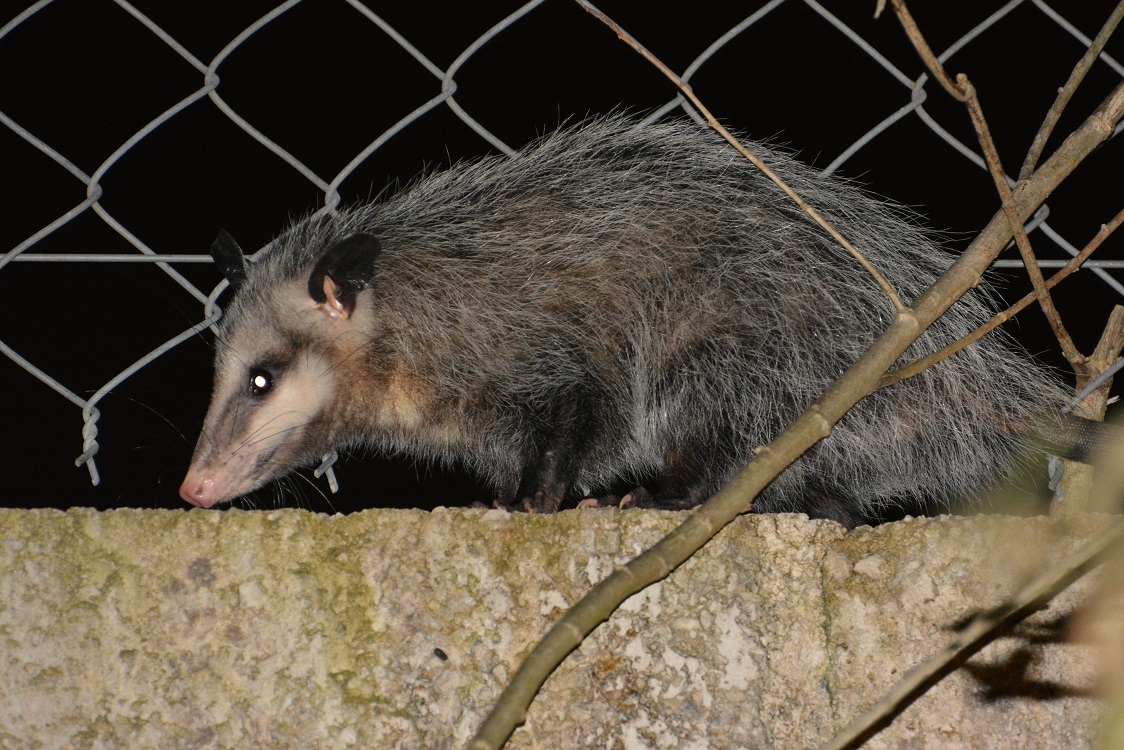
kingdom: Animalia
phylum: Chordata
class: Mammalia
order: Didelphimorphia
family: Didelphidae
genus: Didelphis
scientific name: Didelphis virginiana
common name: Virginia opossum
